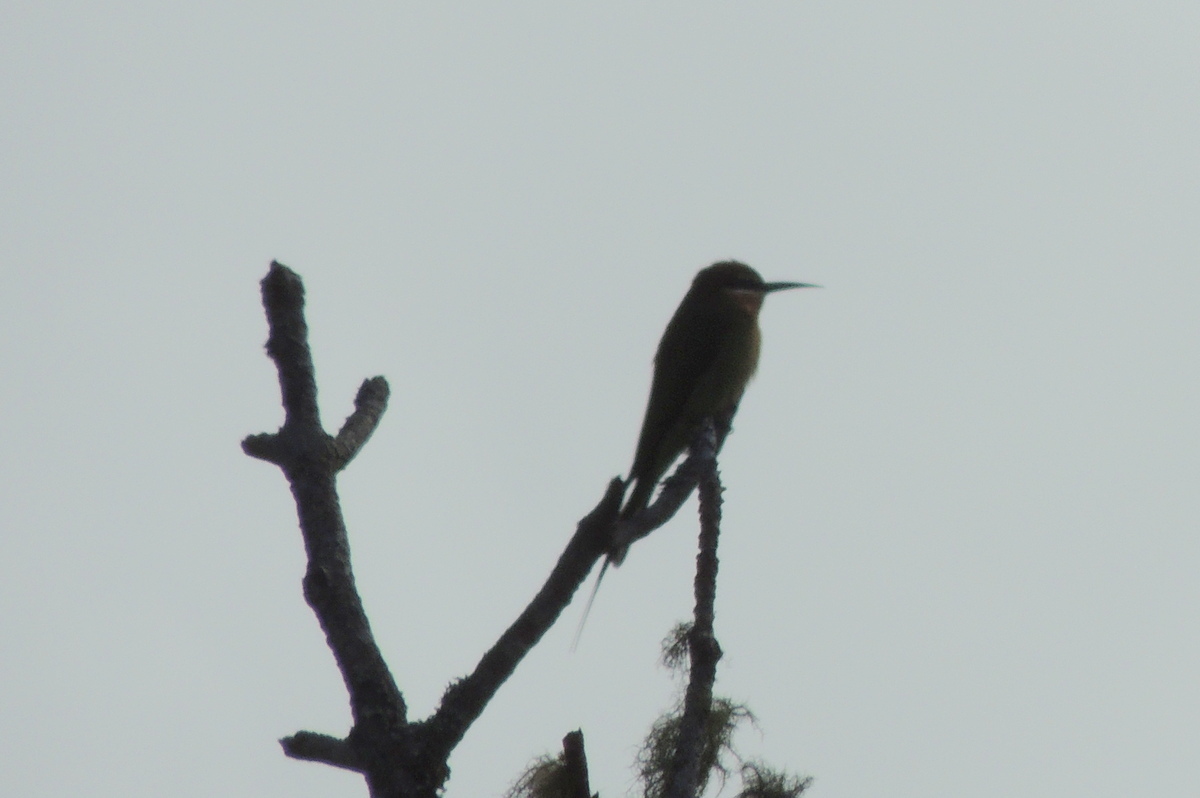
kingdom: Animalia
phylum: Chordata
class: Aves
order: Coraciiformes
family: Meropidae
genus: Merops
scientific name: Merops superciliosus
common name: Olive bee-eater
